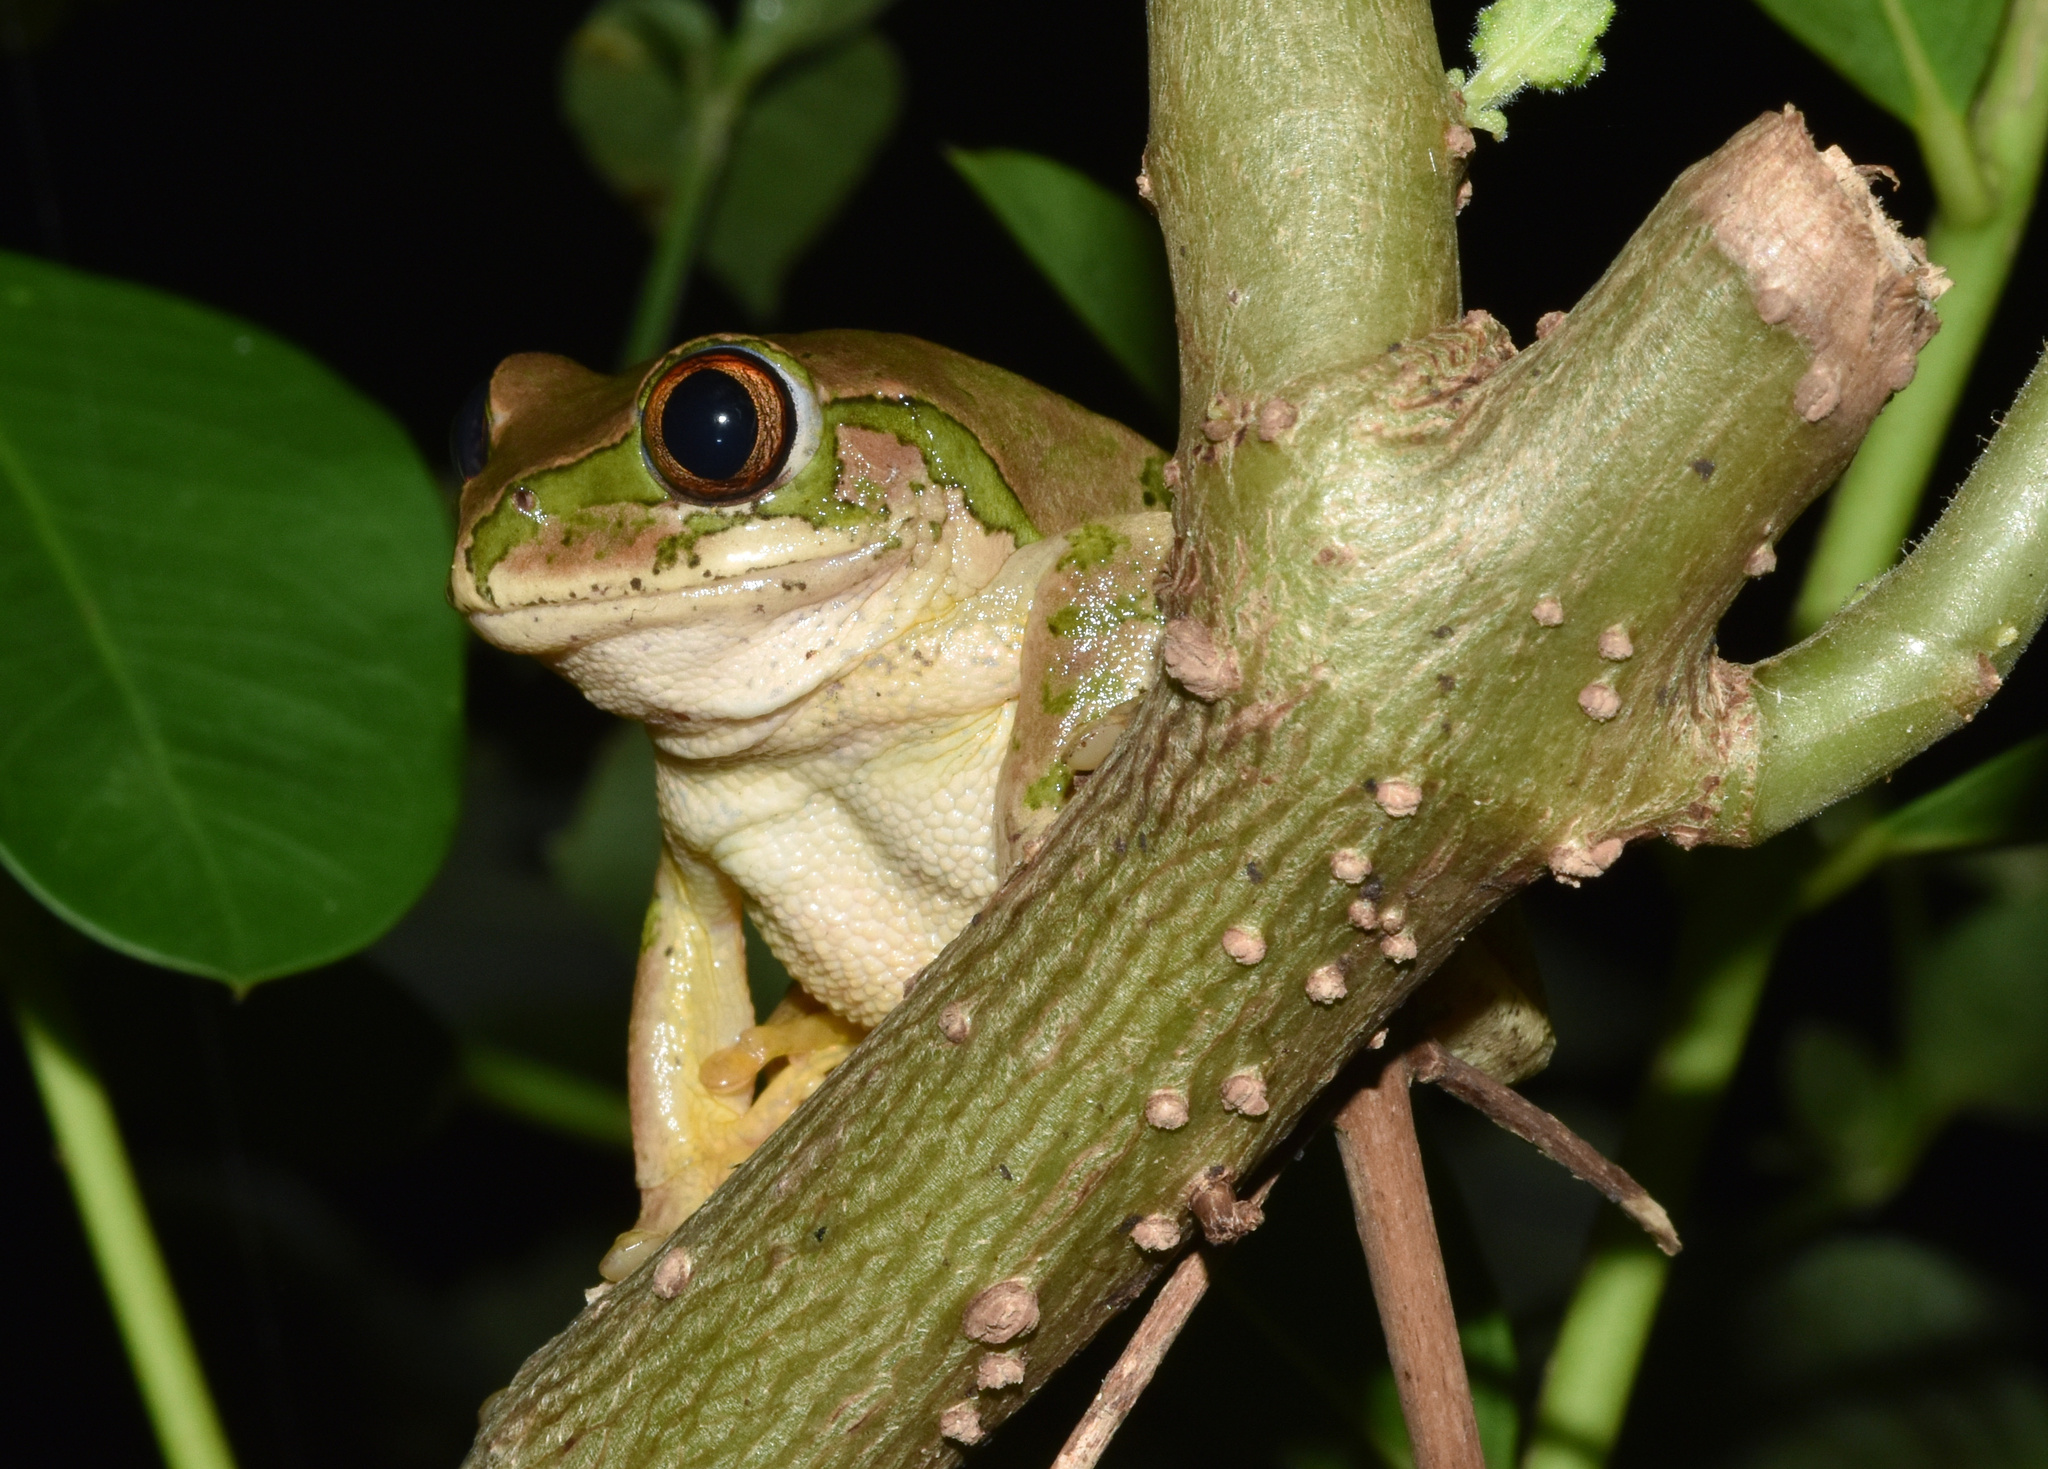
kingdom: Animalia
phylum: Chordata
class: Amphibia
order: Anura
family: Arthroleptidae
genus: Leptopelis
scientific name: Leptopelis natalensis
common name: Natal tree frog
